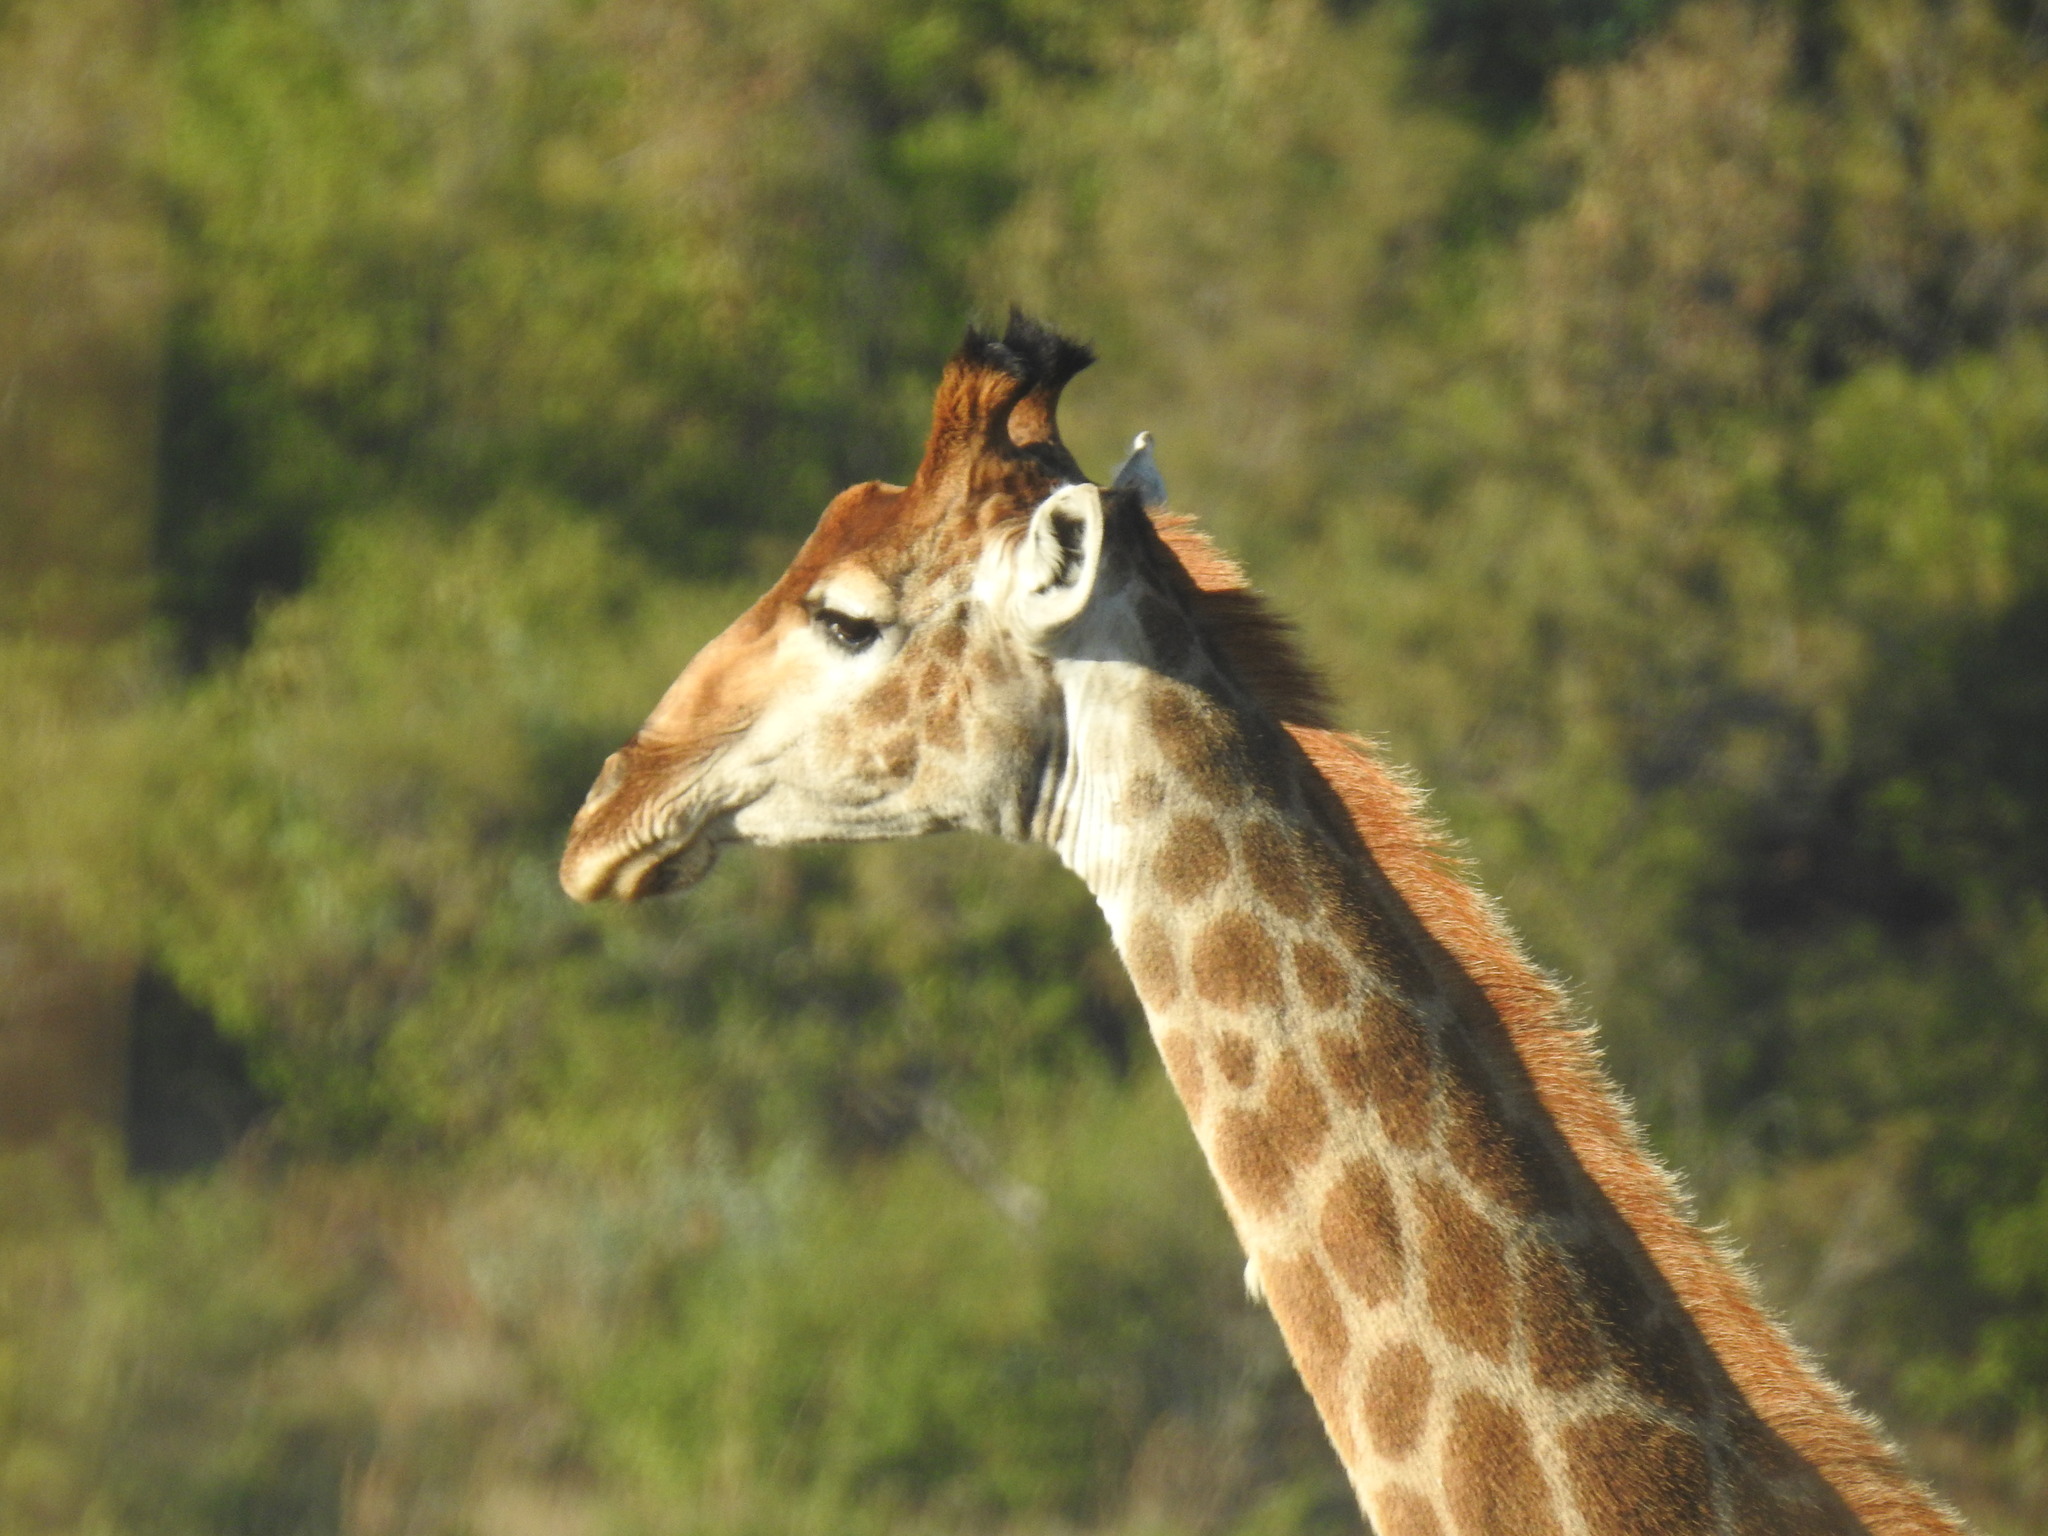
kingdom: Animalia
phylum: Chordata
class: Mammalia
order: Artiodactyla
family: Giraffidae
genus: Giraffa
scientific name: Giraffa giraffa
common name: Southern giraffe
